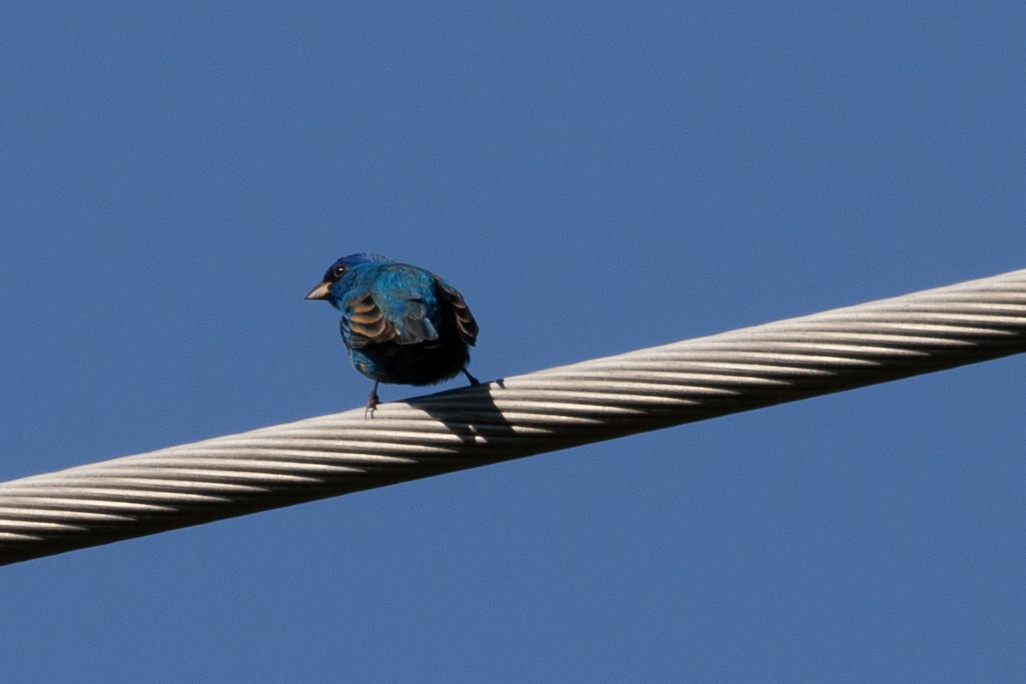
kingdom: Animalia
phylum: Chordata
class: Aves
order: Passeriformes
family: Cardinalidae
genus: Passerina
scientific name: Passerina cyanea
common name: Indigo bunting
